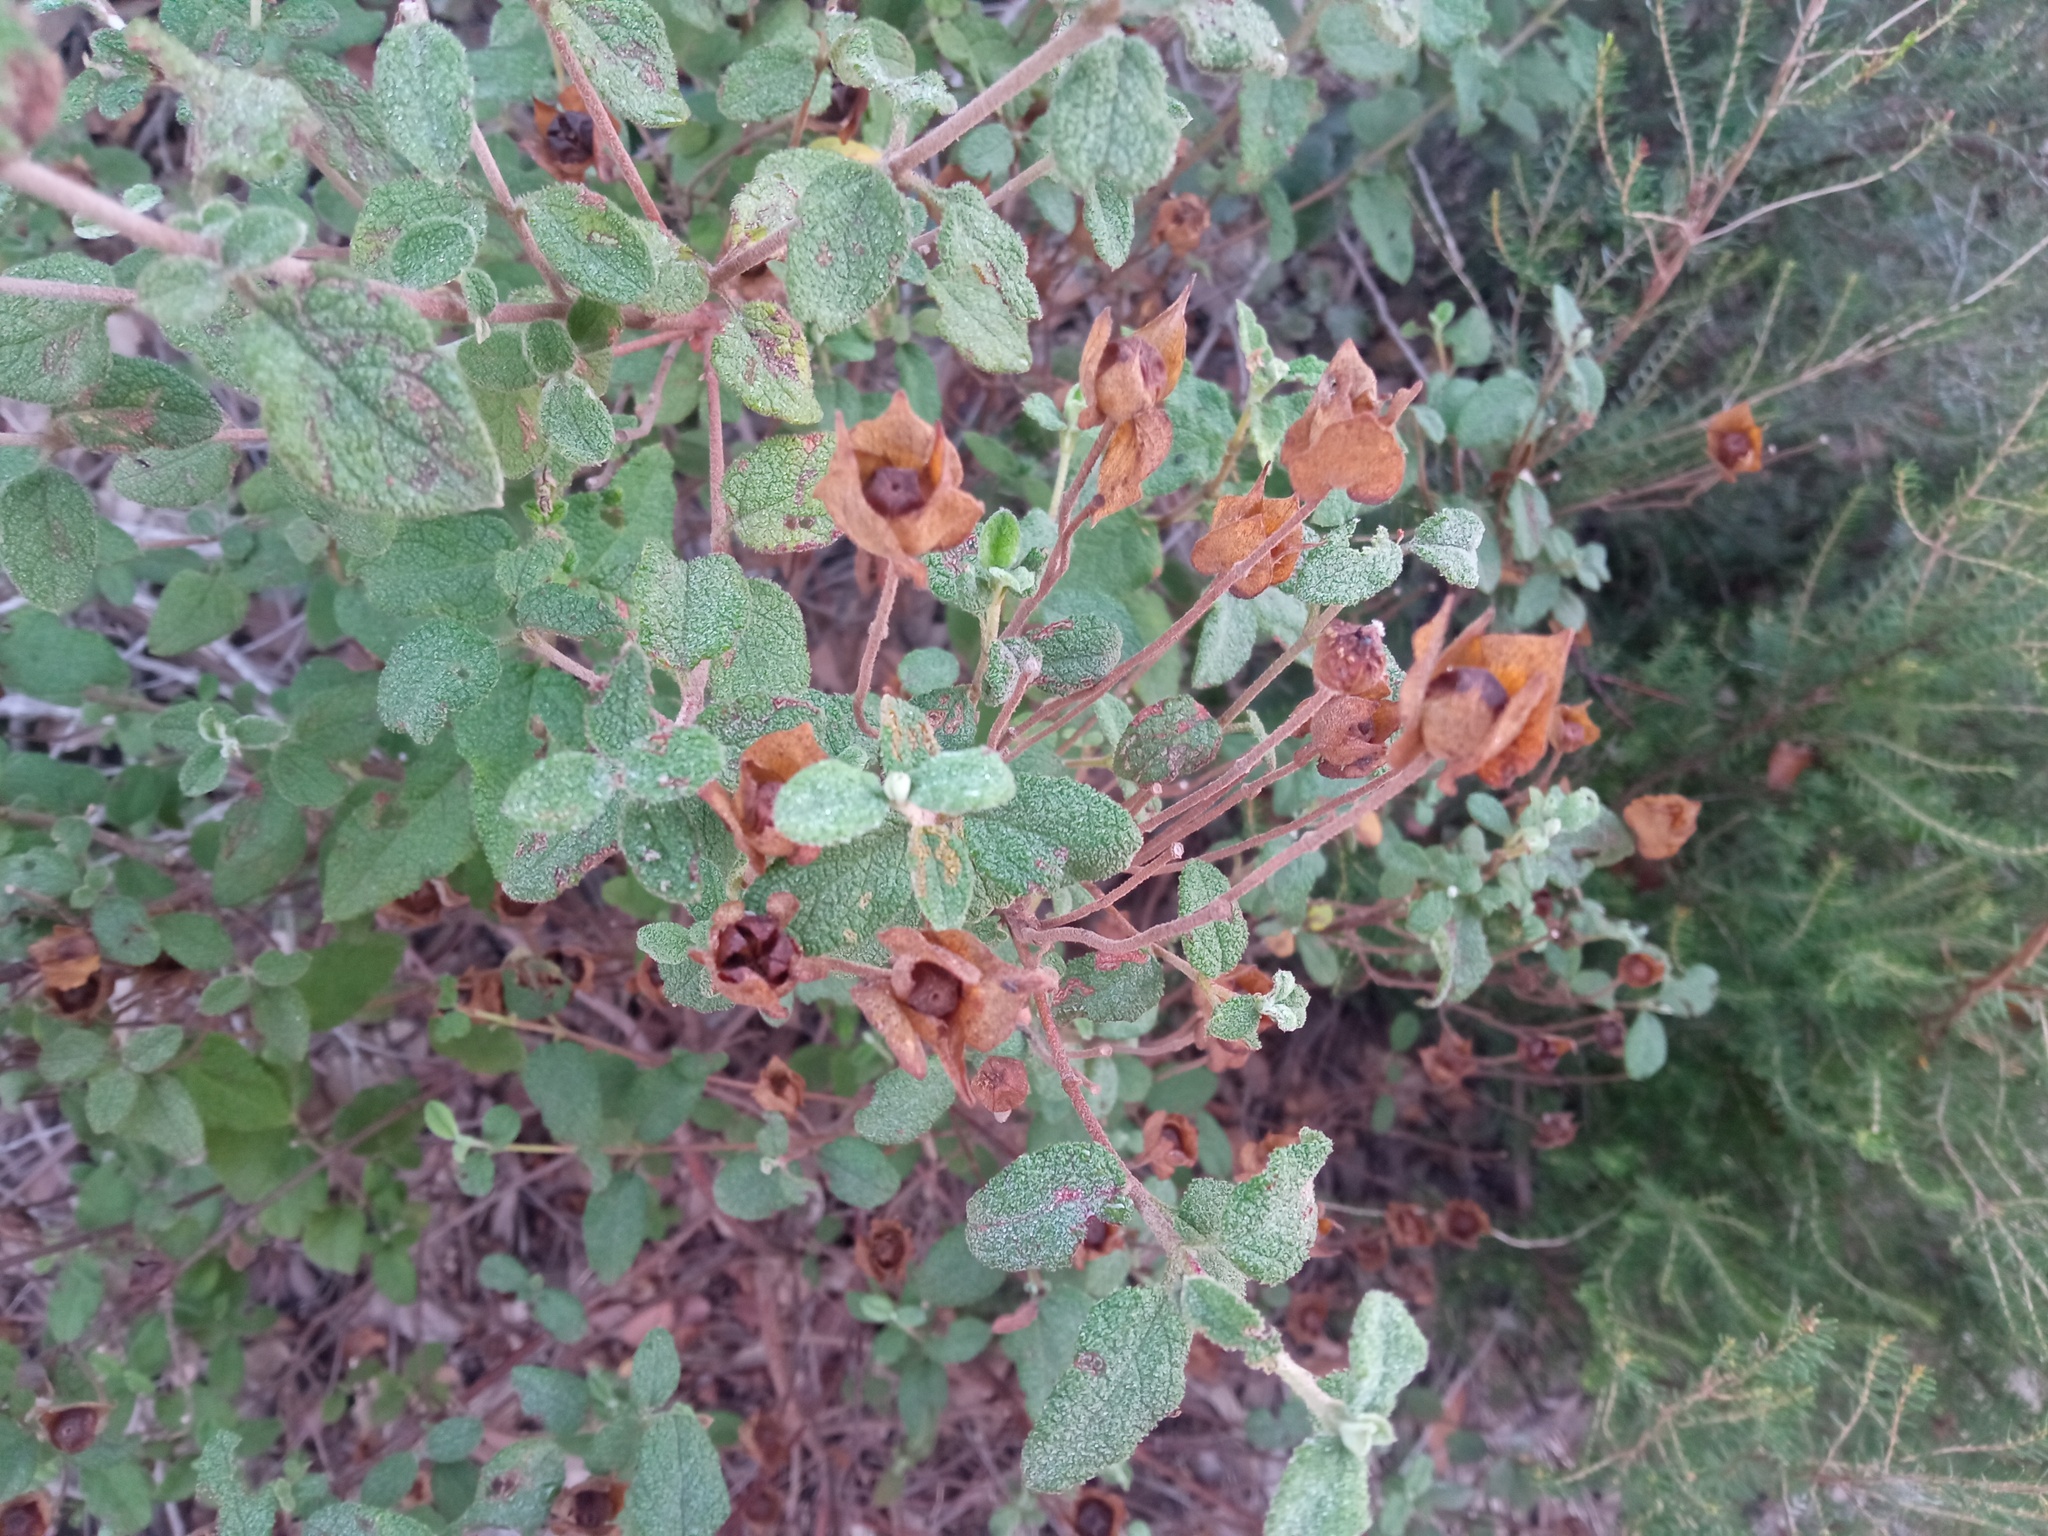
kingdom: Plantae
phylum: Tracheophyta
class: Magnoliopsida
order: Malvales
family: Cistaceae
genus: Cistus
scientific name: Cistus salviifolius
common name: Salvia cistus
